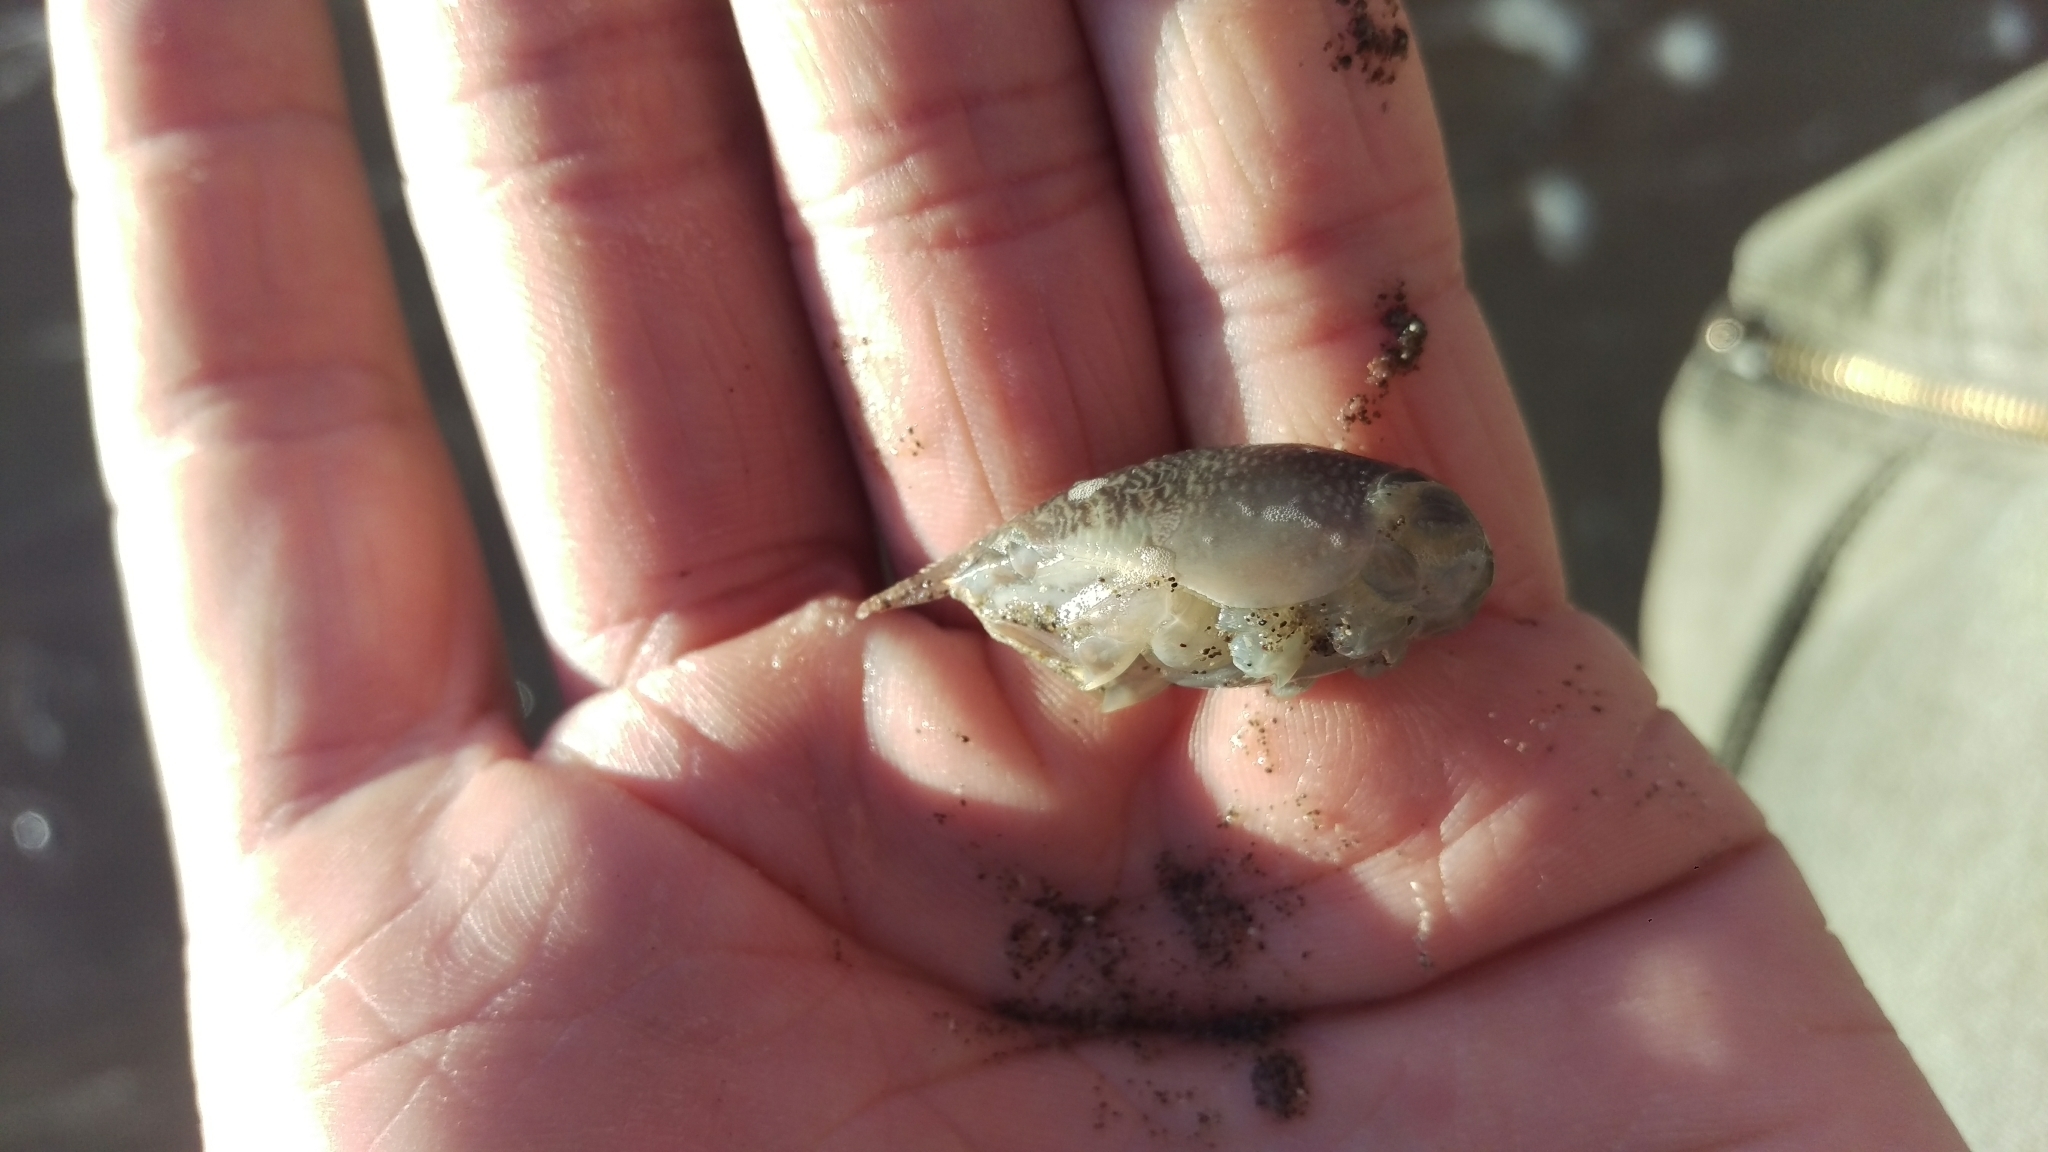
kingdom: Animalia
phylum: Arthropoda
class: Malacostraca
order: Decapoda
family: Hippidae
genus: Emerita
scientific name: Emerita analoga
